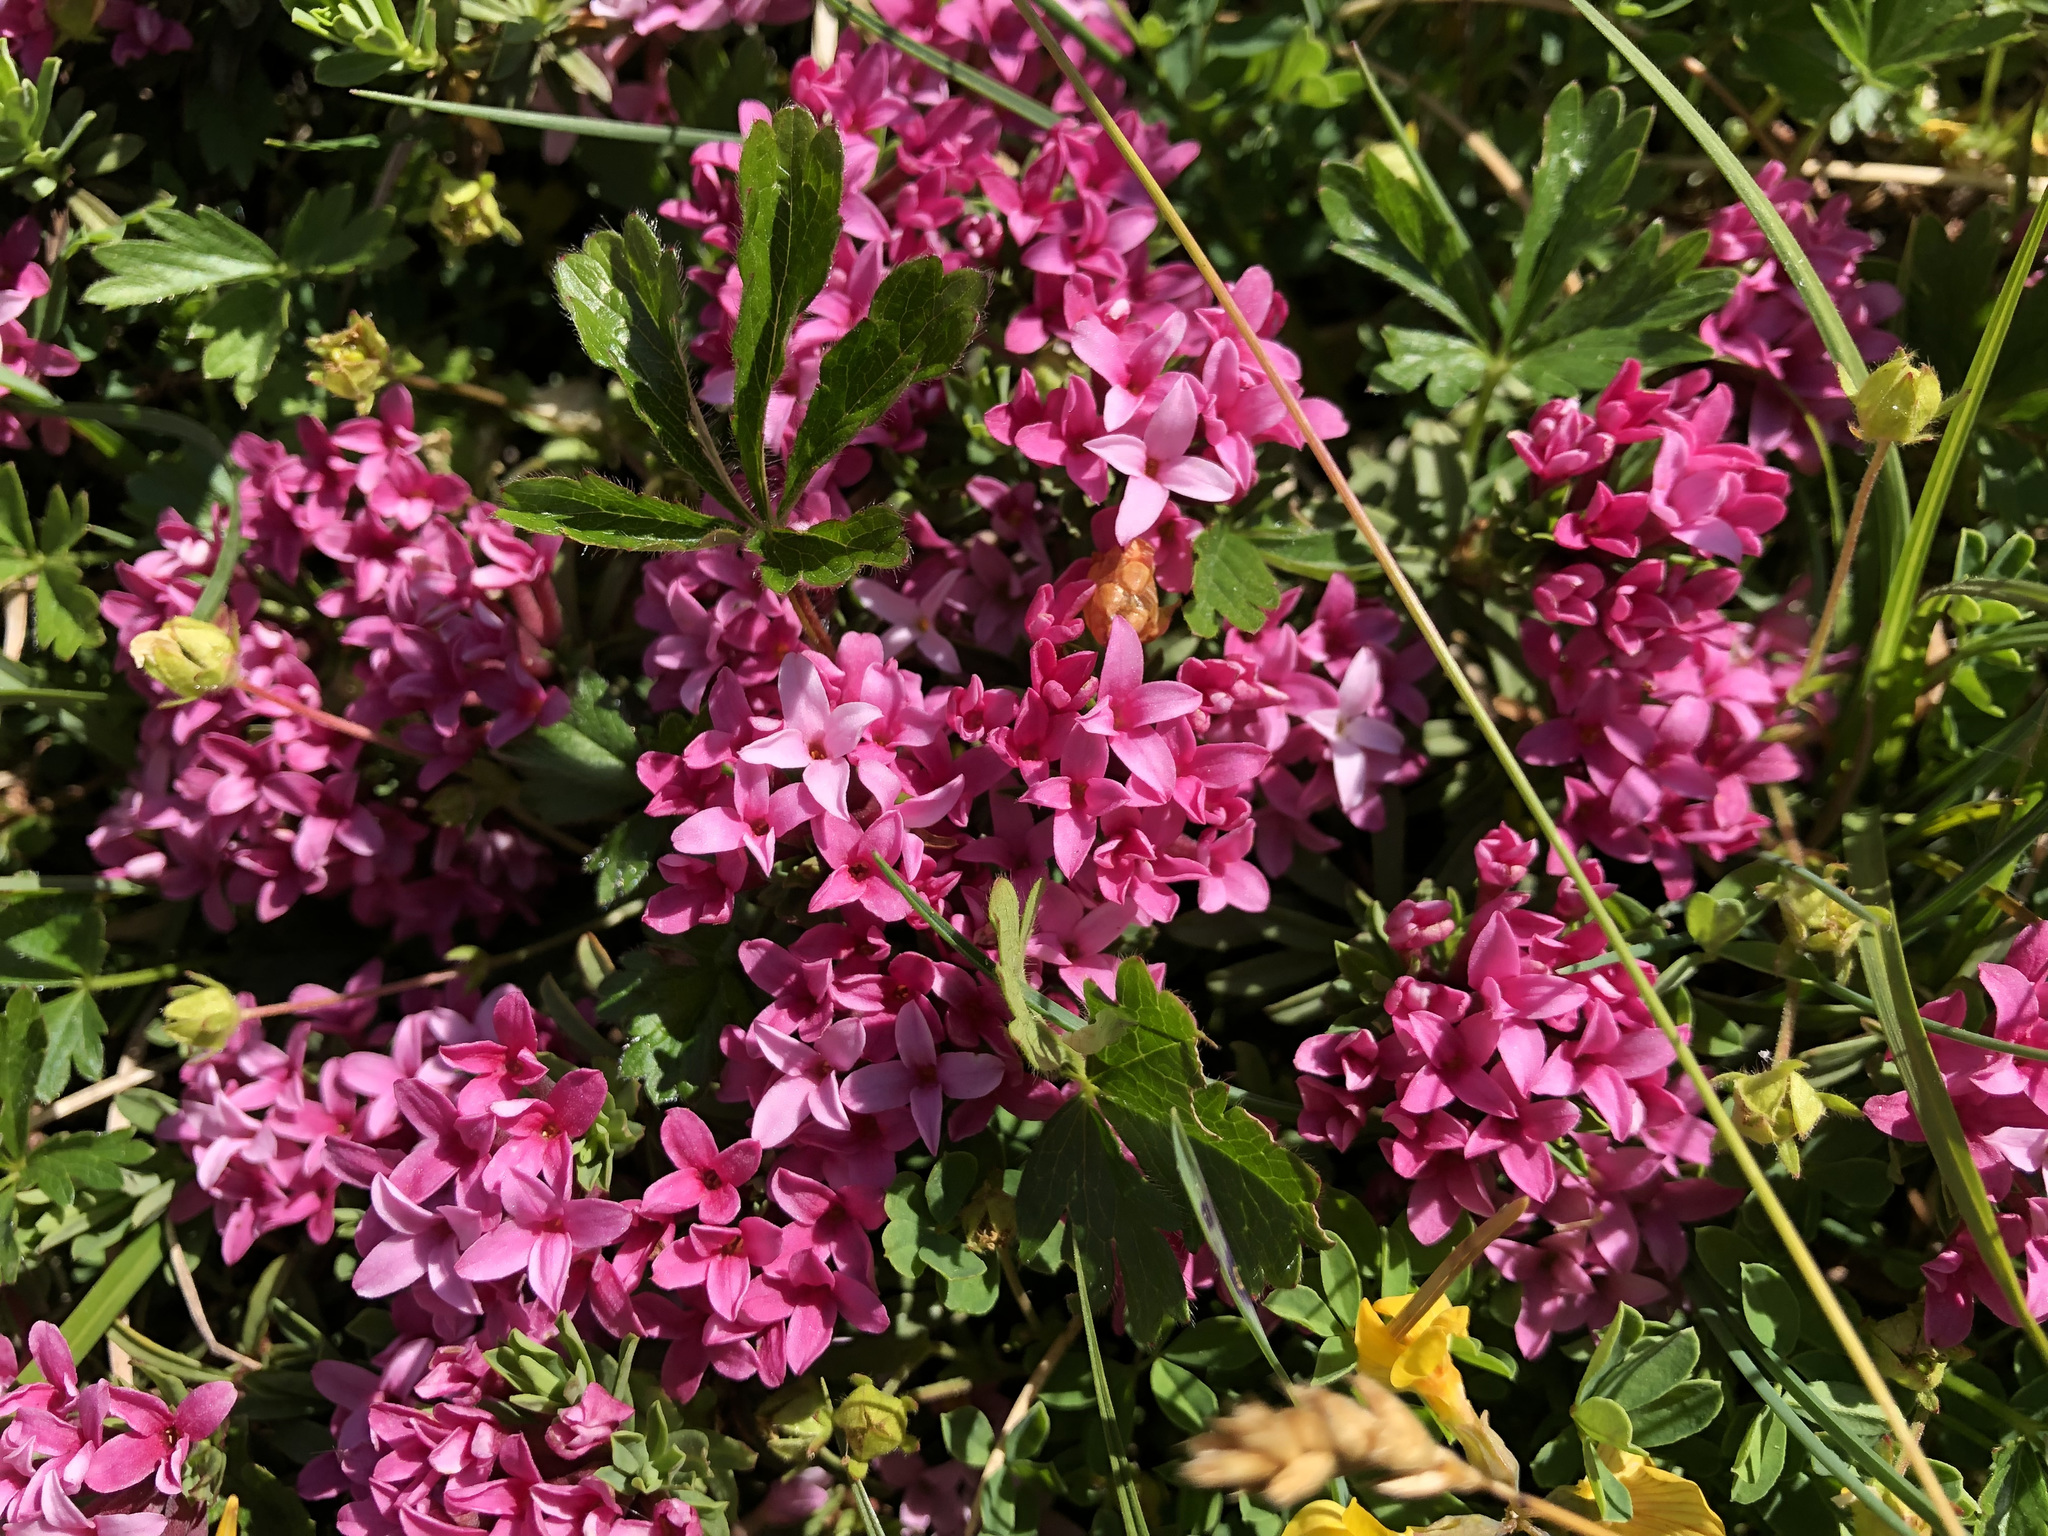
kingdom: Plantae
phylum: Tracheophyta
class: Magnoliopsida
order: Malvales
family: Thymelaeaceae
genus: Daphne
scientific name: Daphne cneorum
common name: Garland-flower
